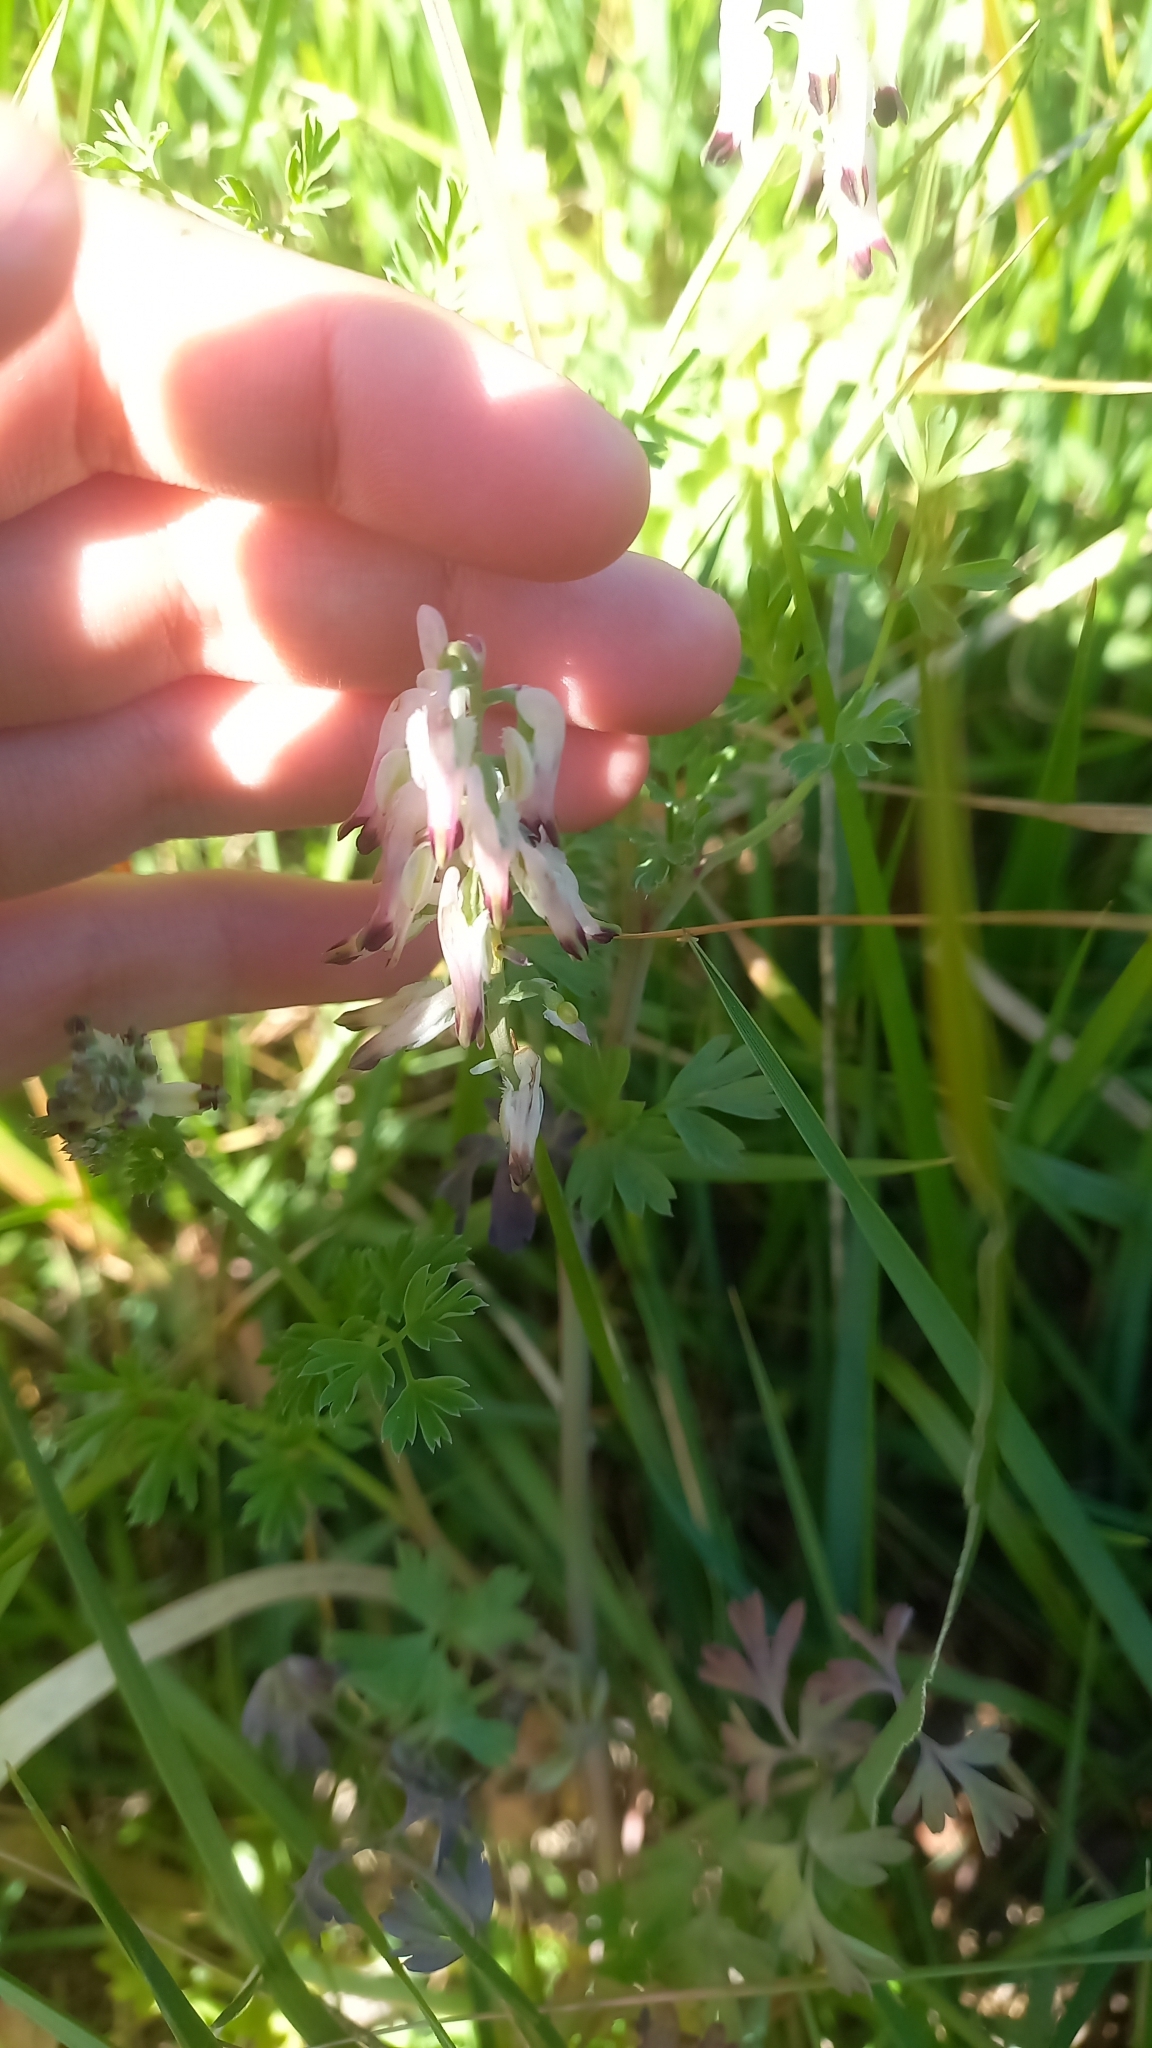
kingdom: Plantae
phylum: Tracheophyta
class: Magnoliopsida
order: Ranunculales
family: Papaveraceae
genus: Fumaria
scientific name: Fumaria capreolata
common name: White ramping-fumitory
